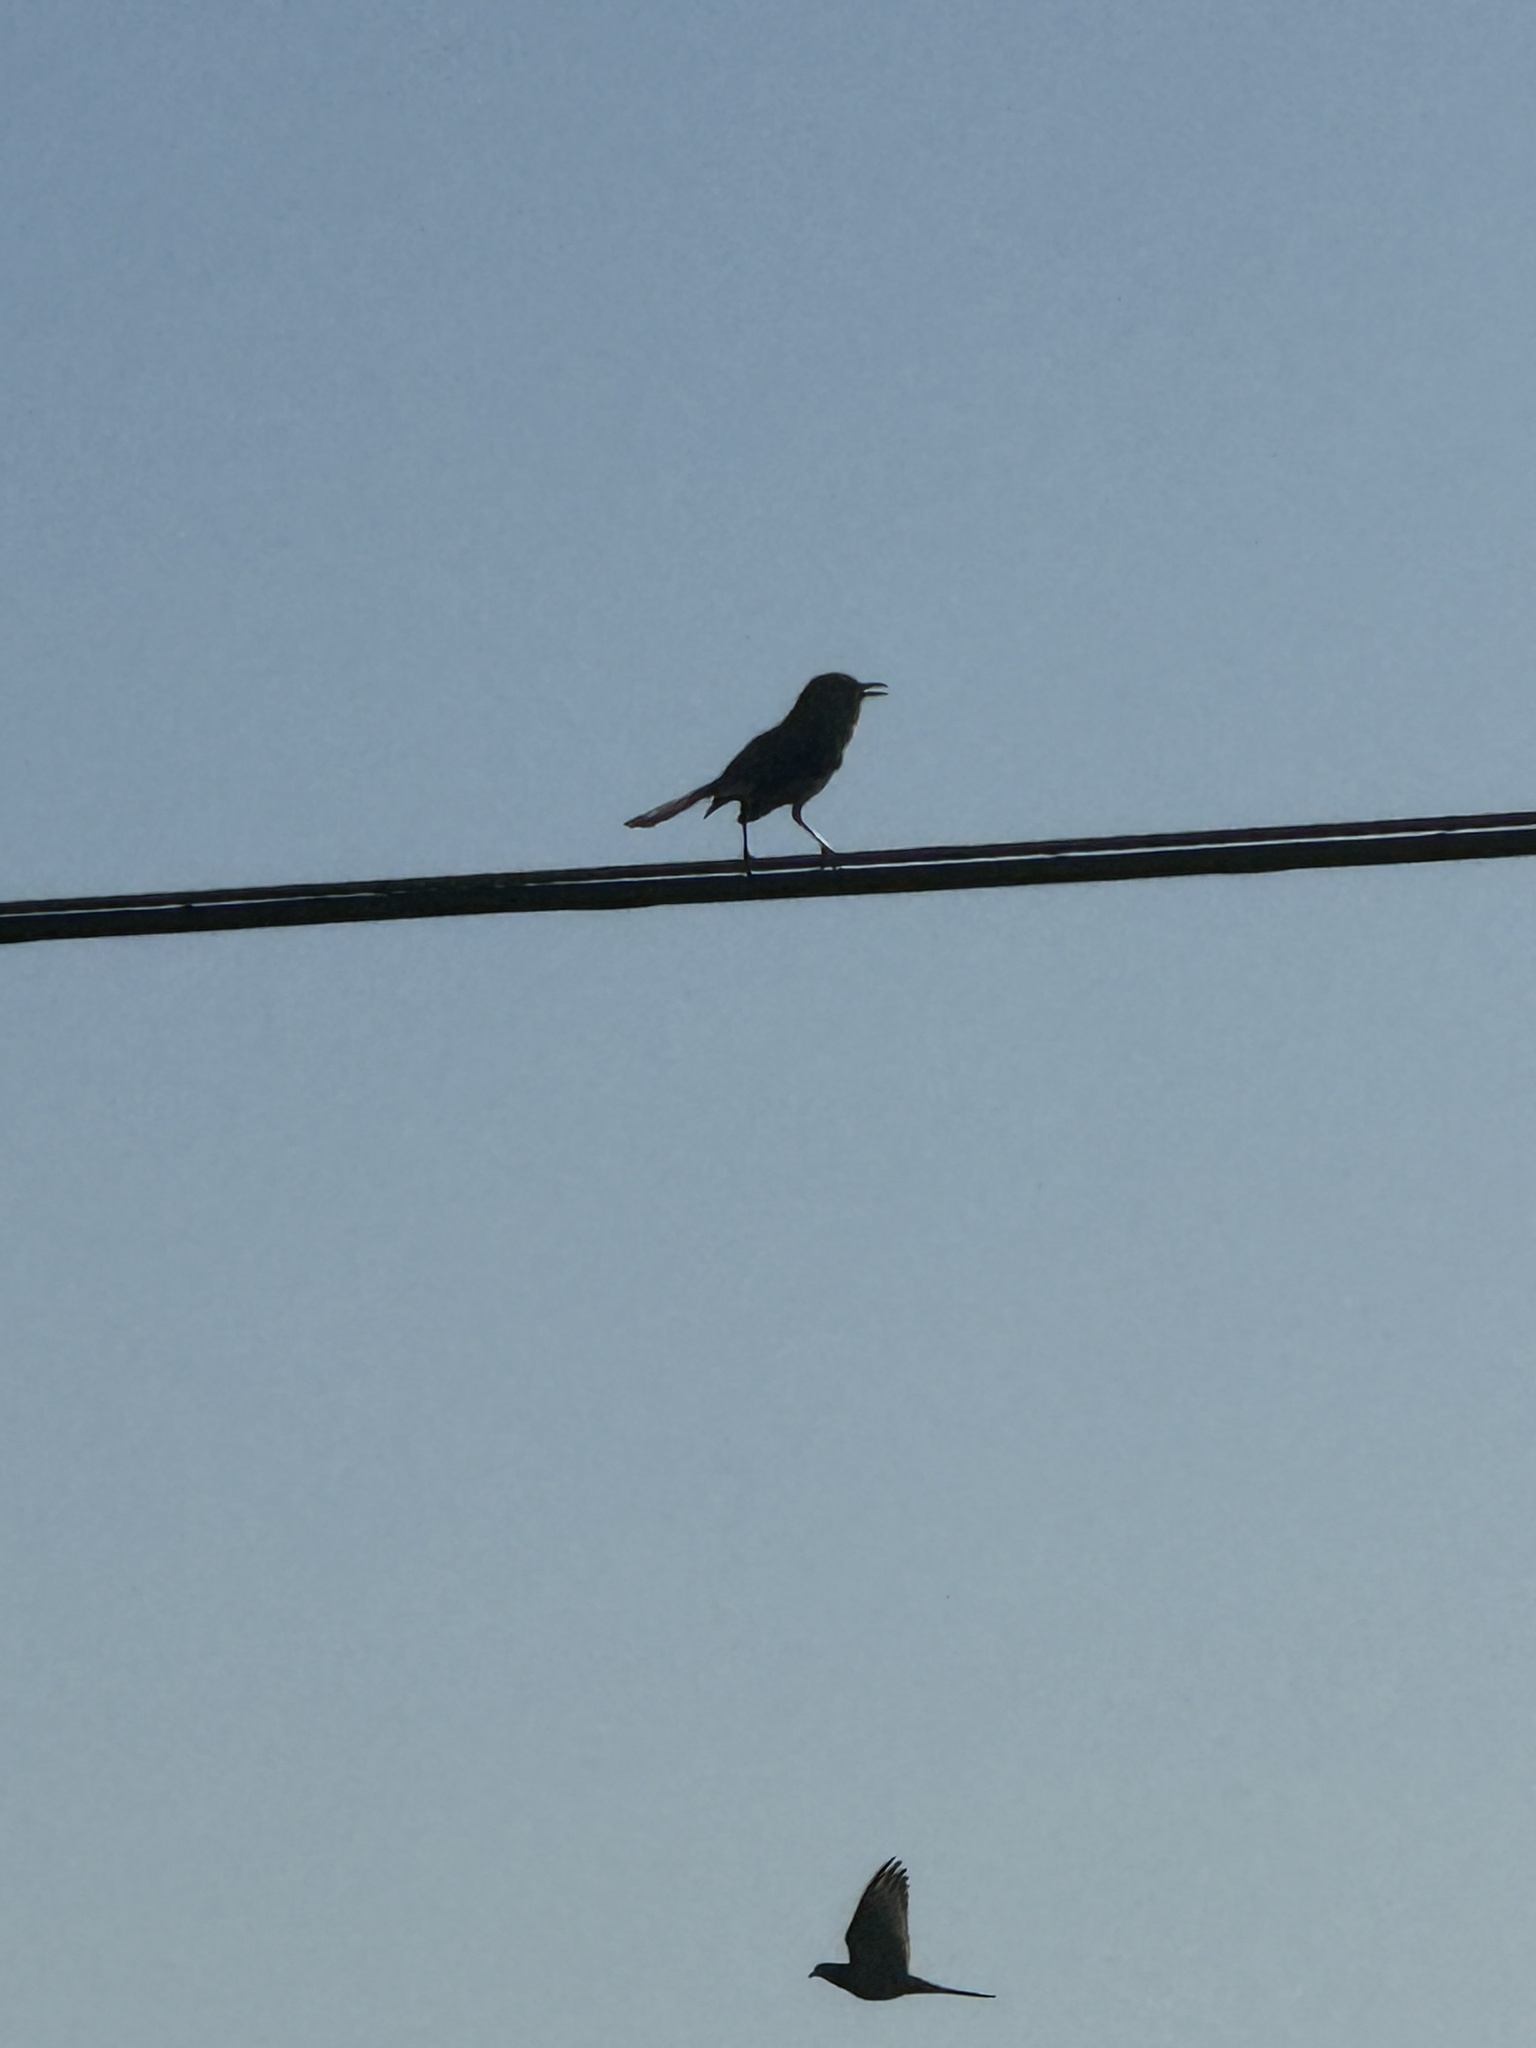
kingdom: Animalia
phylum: Chordata
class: Aves
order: Passeriformes
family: Mimidae
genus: Mimus
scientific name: Mimus polyglottos
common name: Northern mockingbird
